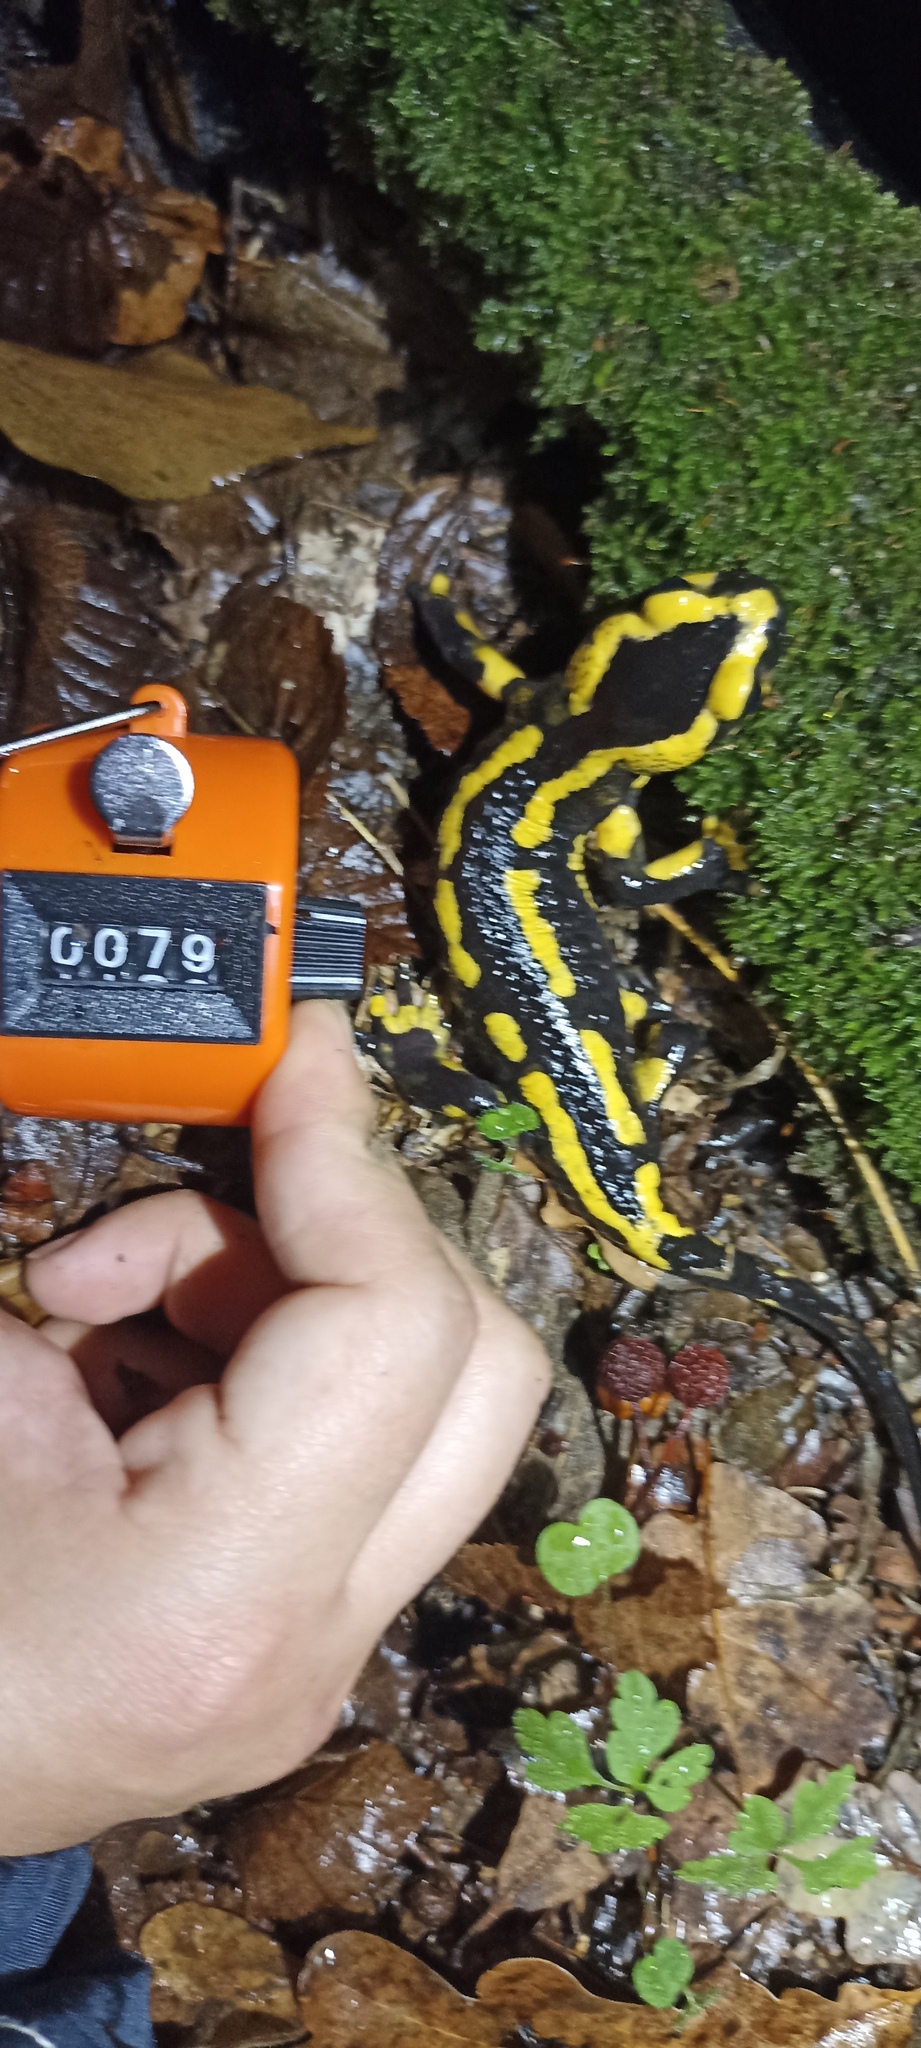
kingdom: Animalia
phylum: Chordata
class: Amphibia
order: Caudata
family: Salamandridae
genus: Salamandra
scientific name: Salamandra salamandra
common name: Fire salamander
